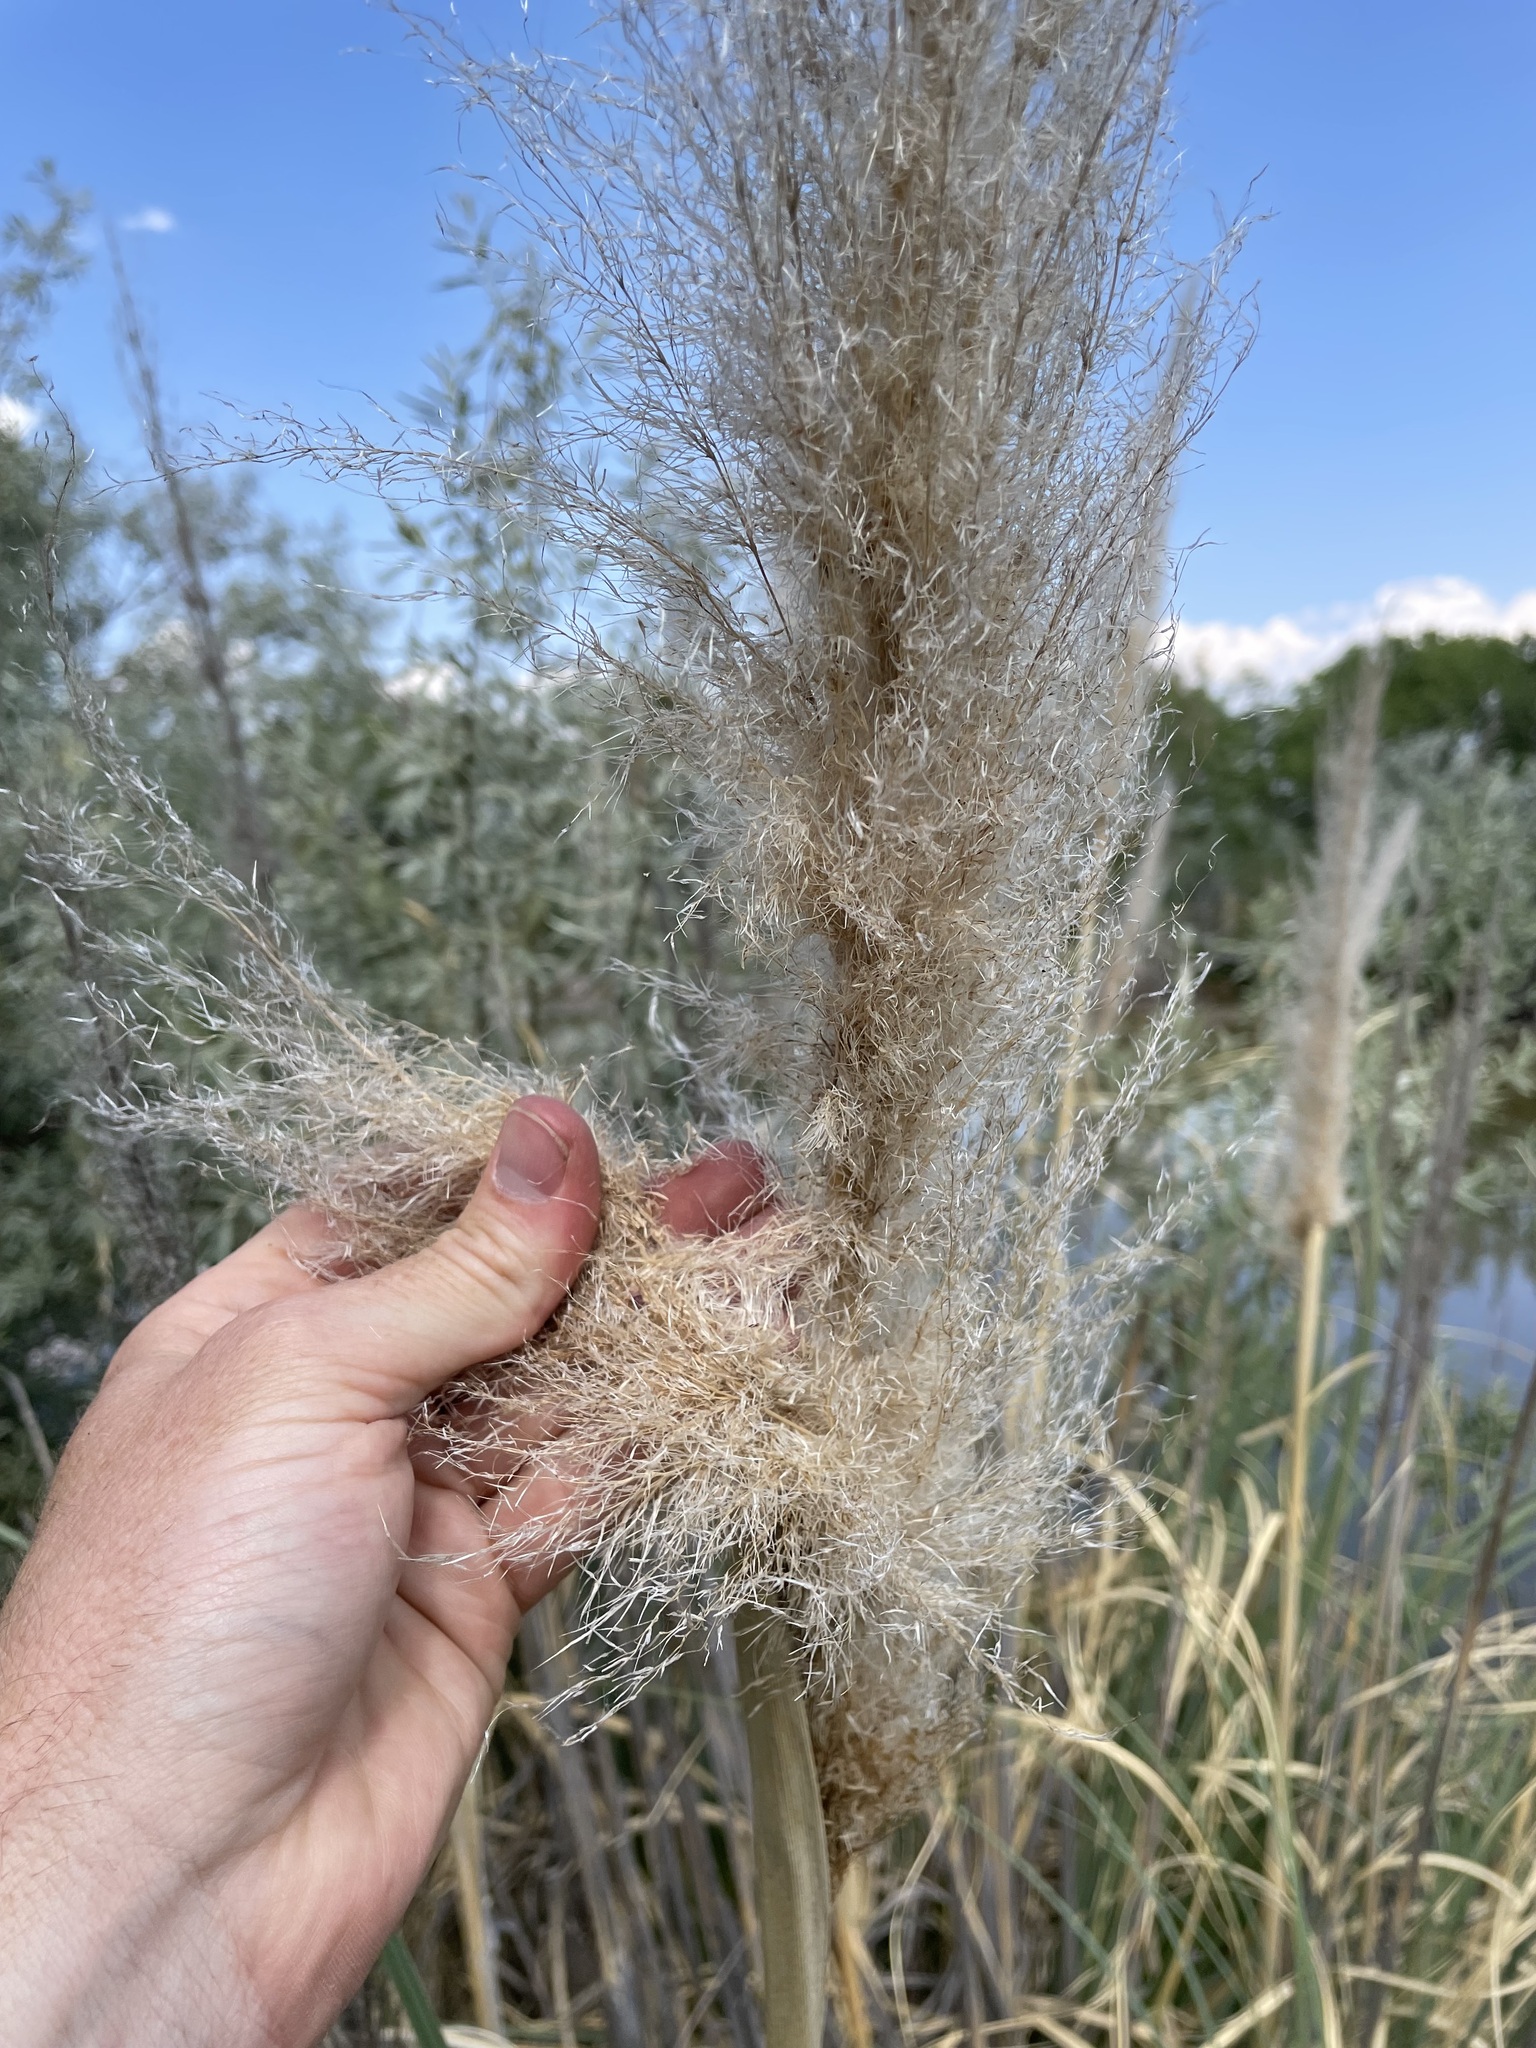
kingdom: Plantae
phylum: Tracheophyta
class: Liliopsida
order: Poales
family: Poaceae
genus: Cortaderia
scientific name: Cortaderia selloana
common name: Uruguayan pampas grass
